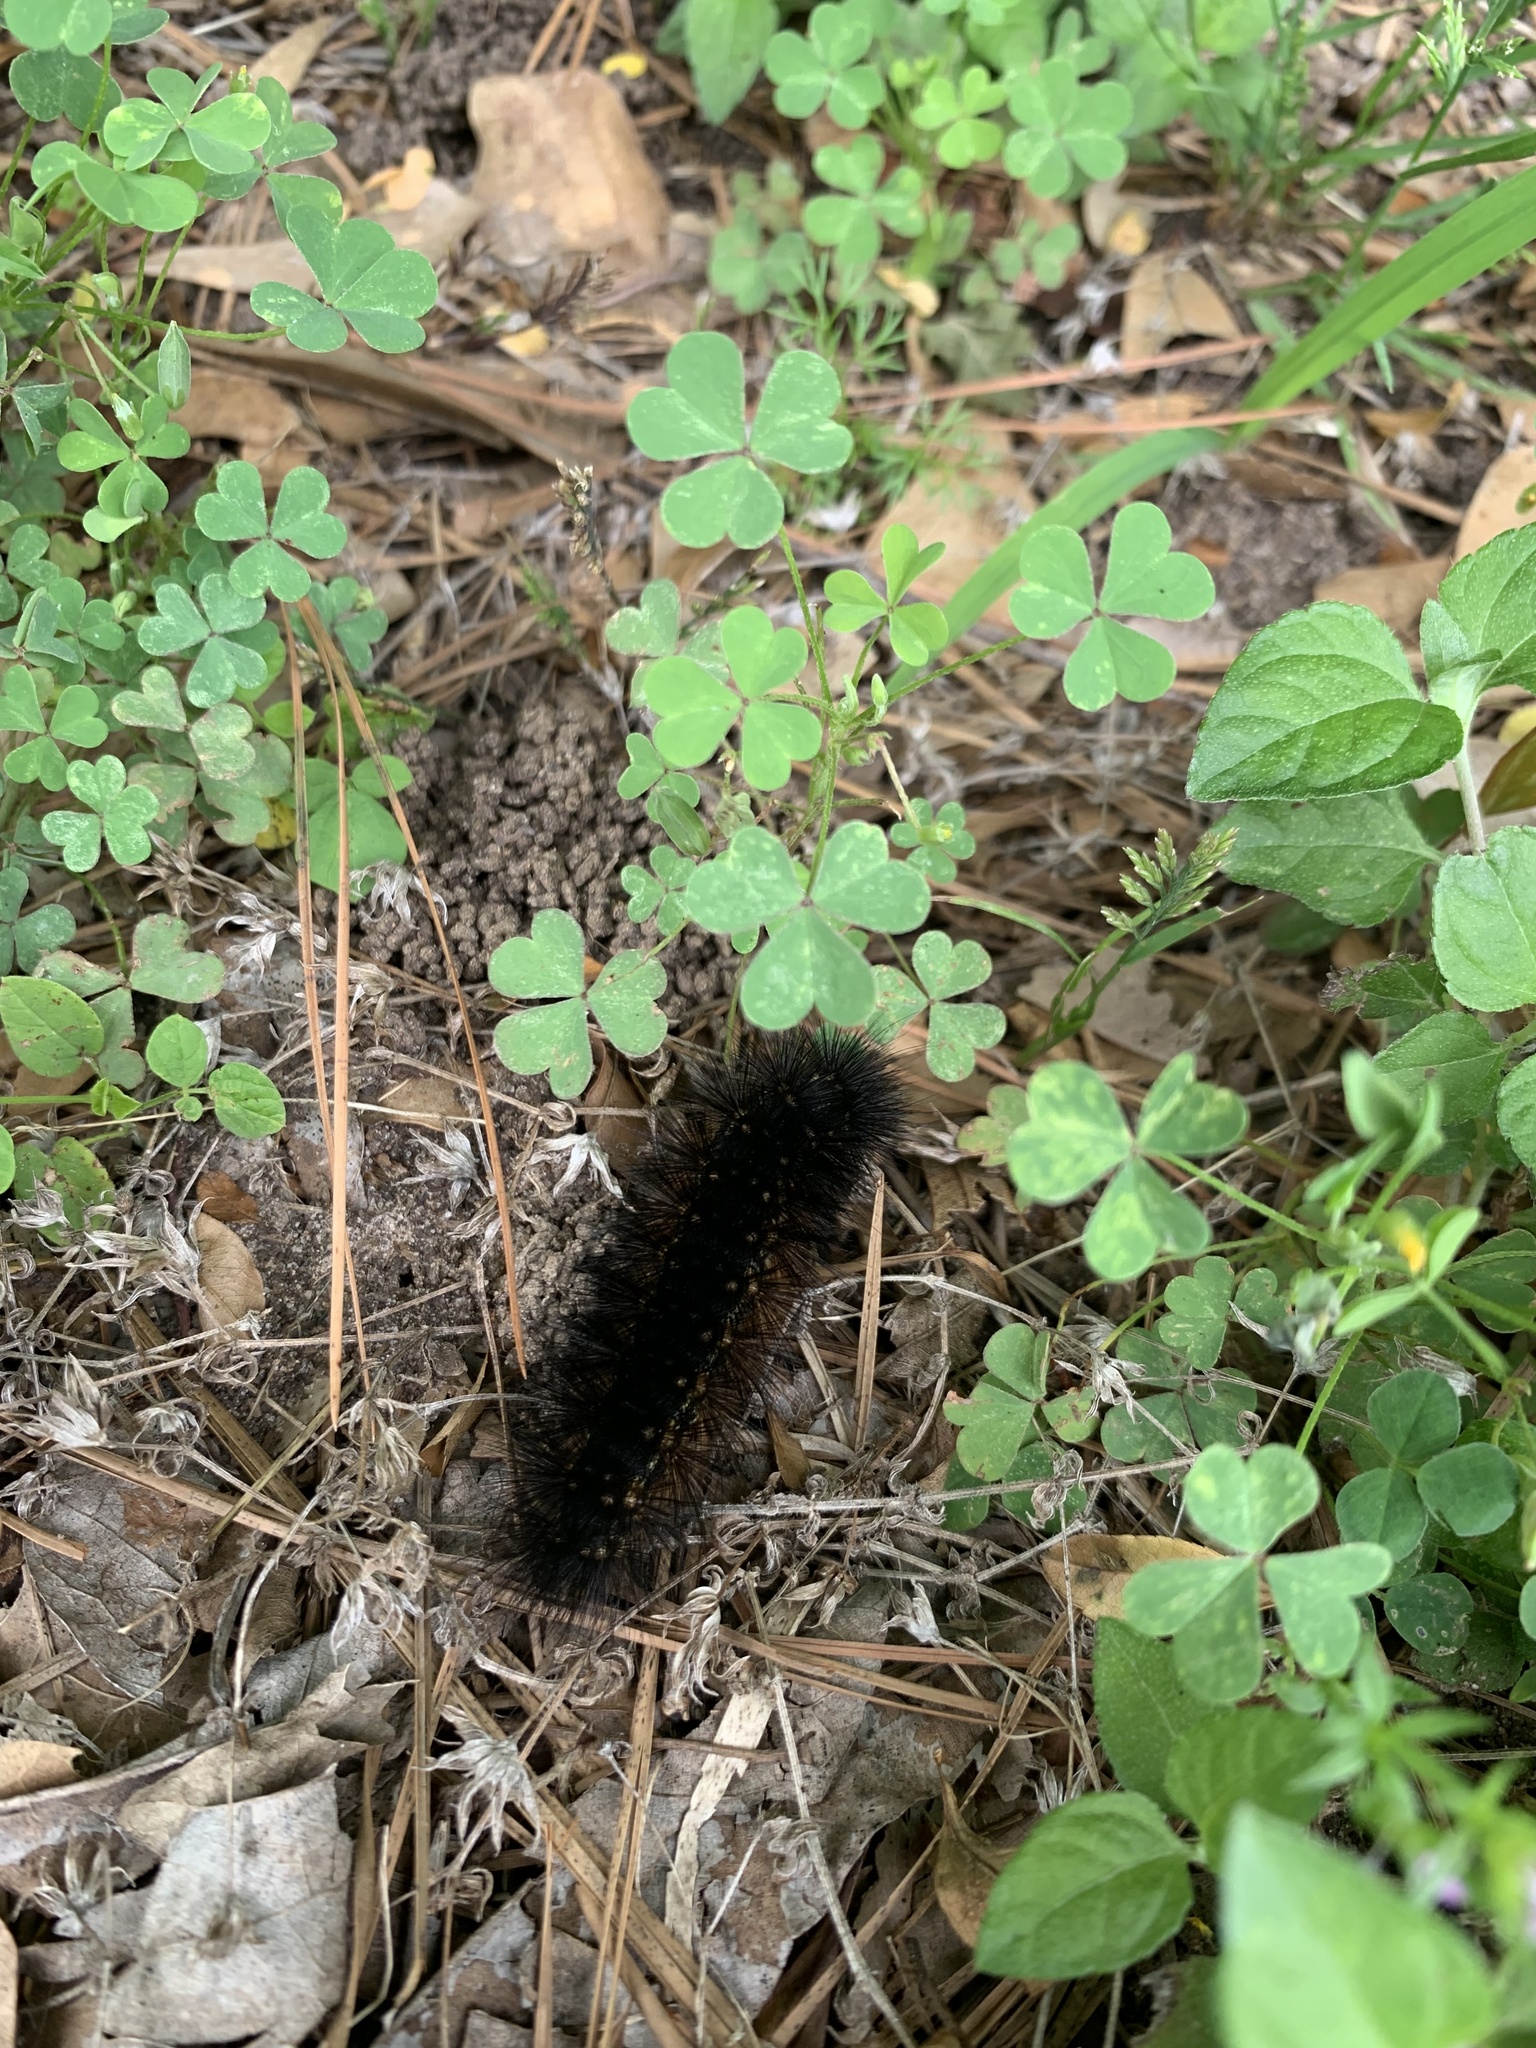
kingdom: Animalia
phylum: Arthropoda
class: Insecta
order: Lepidoptera
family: Erebidae
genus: Estigmene
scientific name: Estigmene acrea
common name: Salt marsh moth
